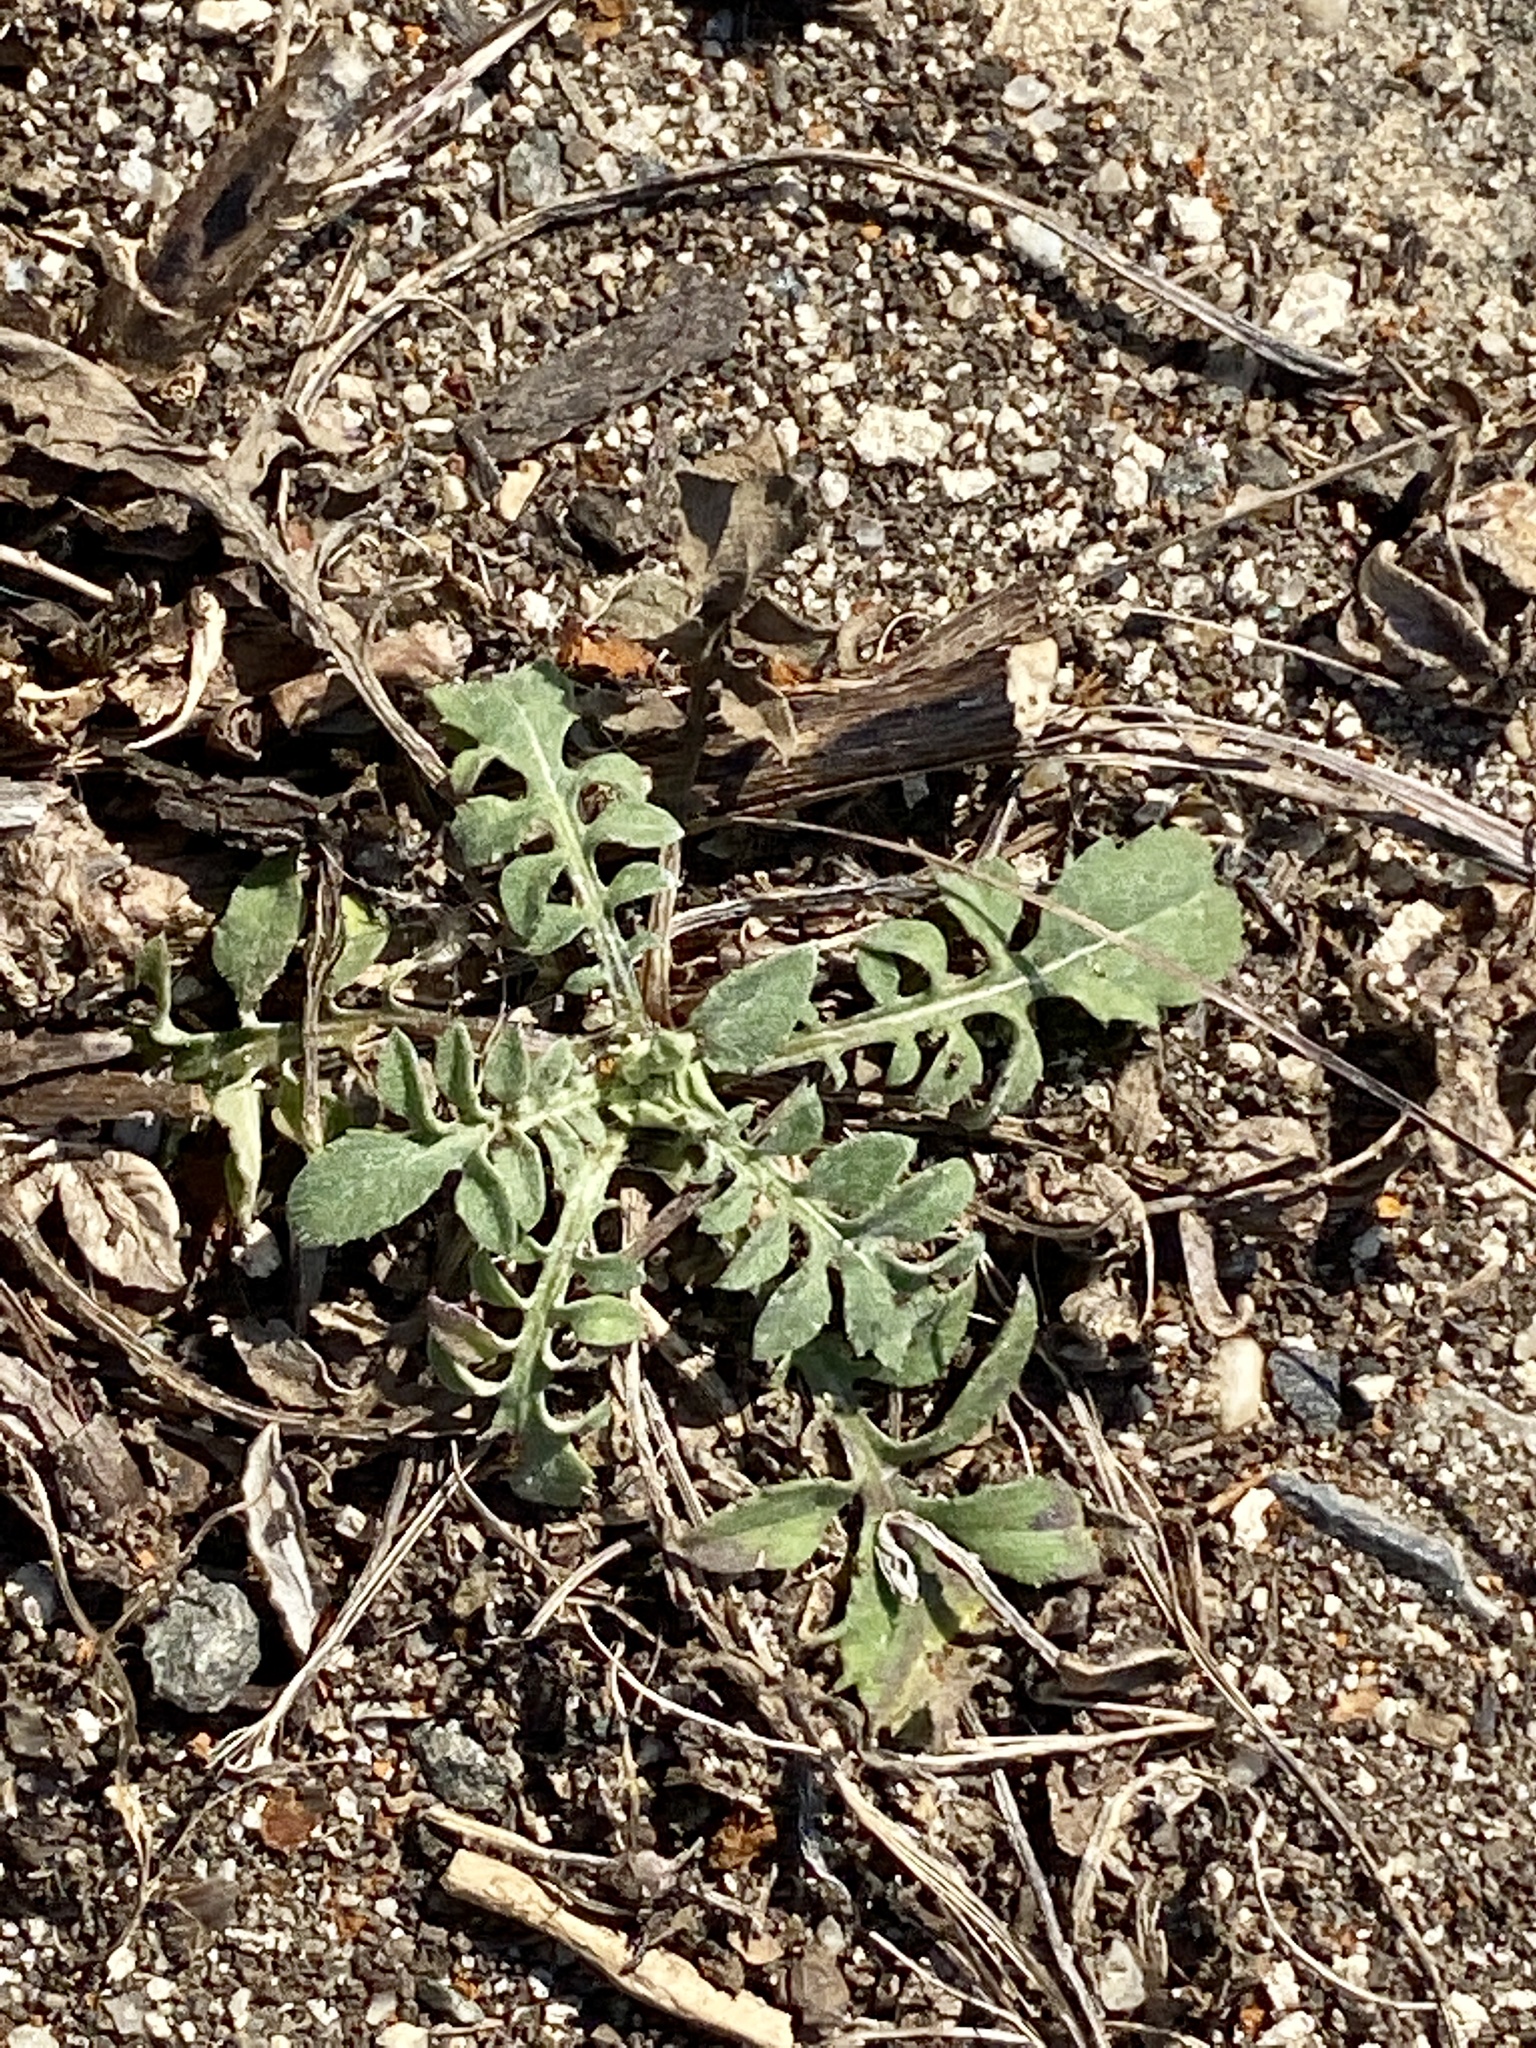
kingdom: Plantae
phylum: Tracheophyta
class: Magnoliopsida
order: Asterales
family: Asteraceae
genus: Centaurea
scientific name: Centaurea stoebe
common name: Spotted knapweed
